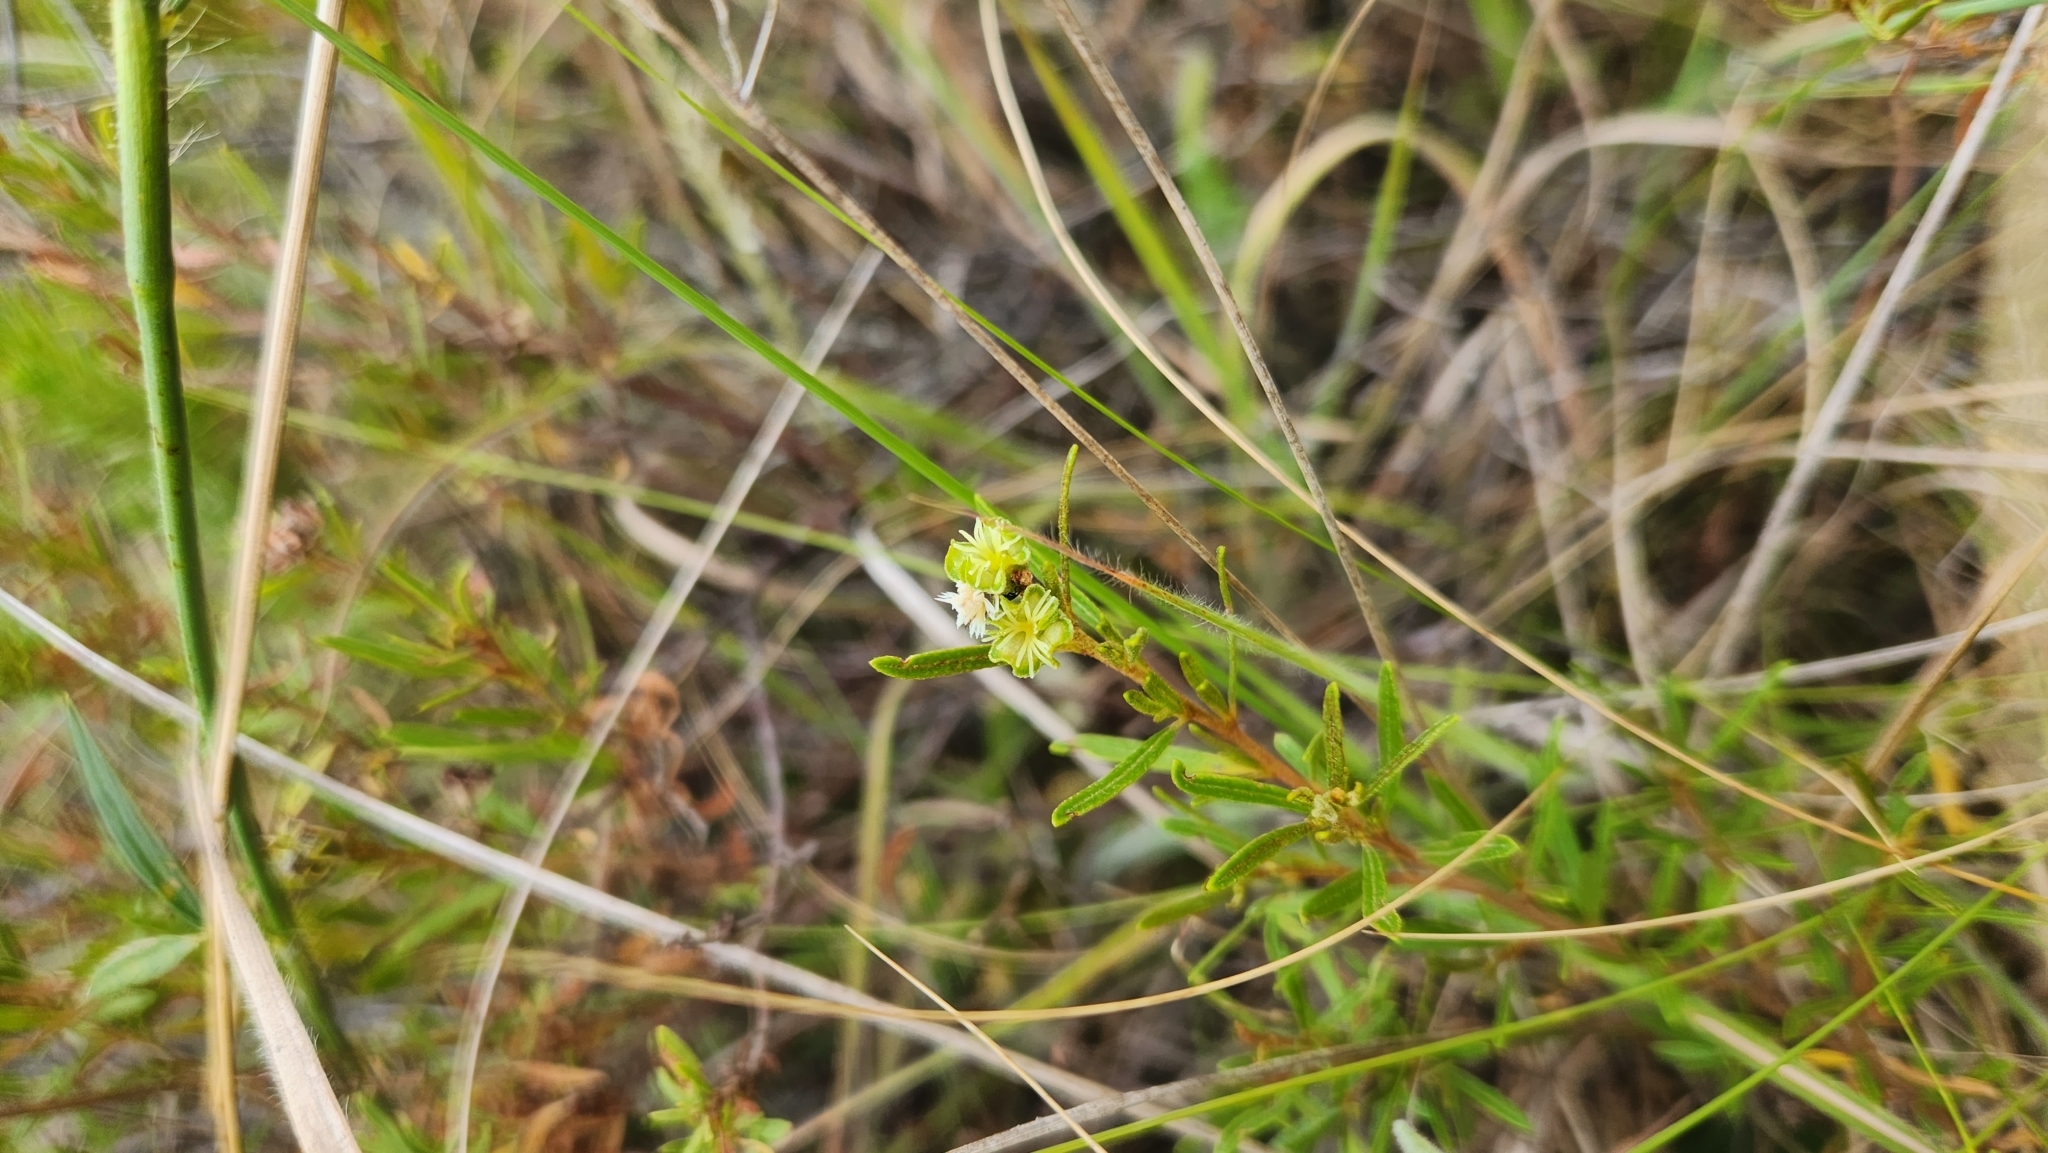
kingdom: Plantae
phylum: Tracheophyta
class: Magnoliopsida
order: Malpighiales
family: Euphorbiaceae
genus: Croton
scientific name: Croton cuchillae-nigrae
